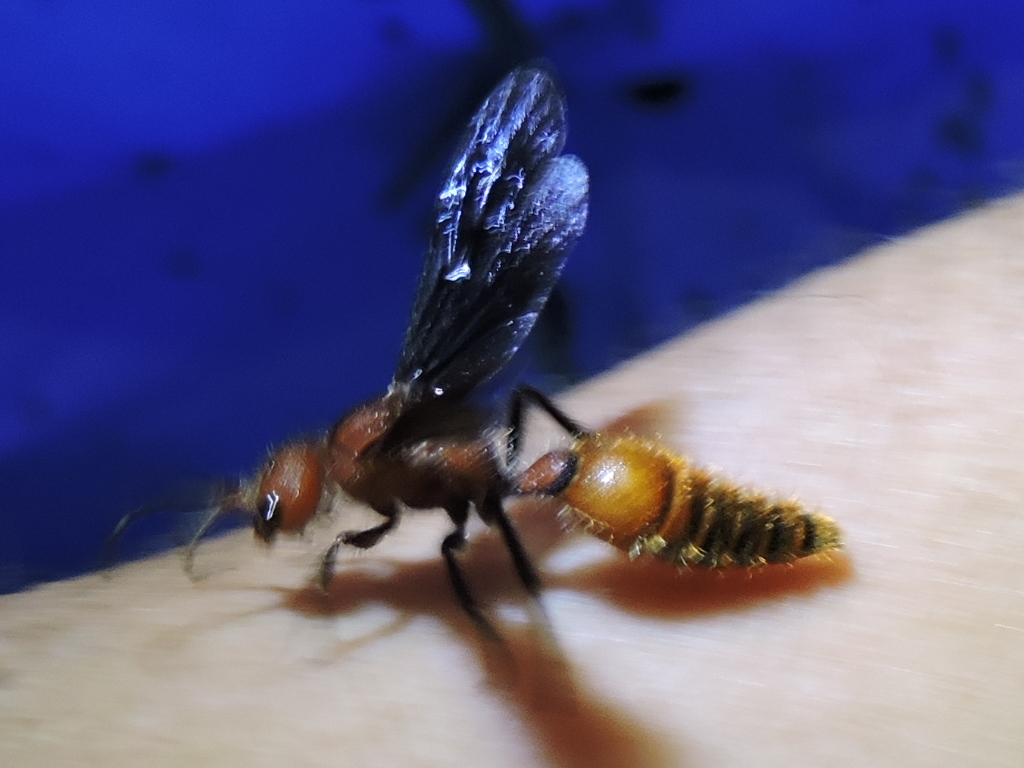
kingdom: Animalia
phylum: Arthropoda
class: Insecta
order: Hymenoptera
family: Mutillidae
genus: Sphaeropthalma
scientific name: Sphaeropthalma
